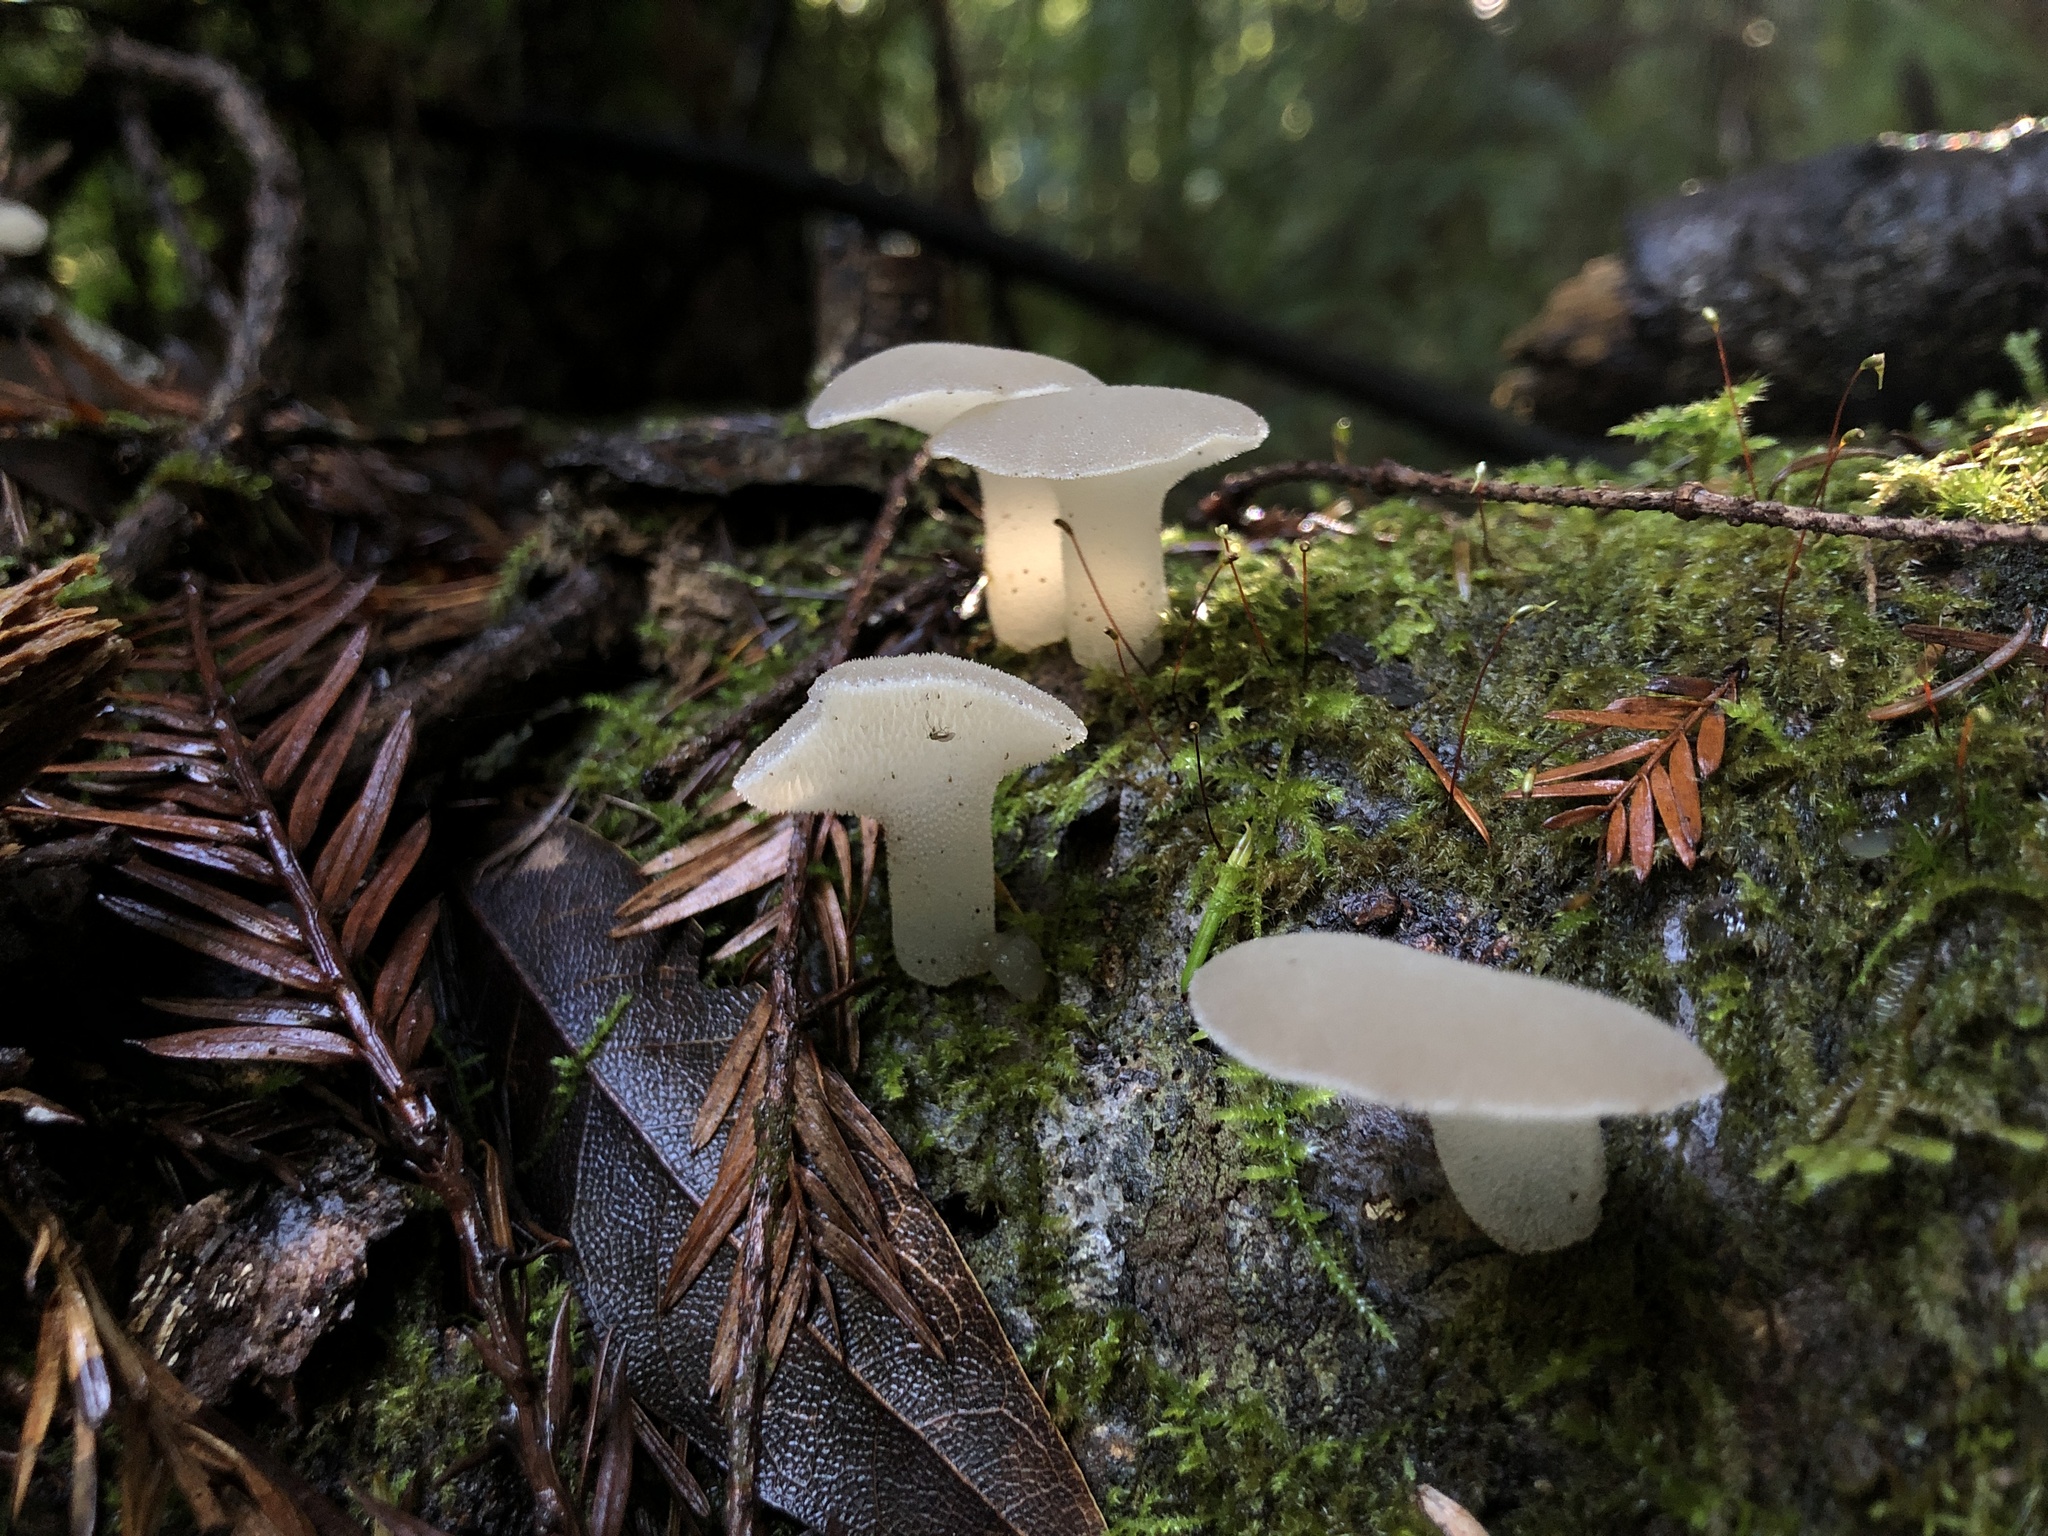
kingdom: Fungi
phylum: Basidiomycota
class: Agaricomycetes
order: Auriculariales
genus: Pseudohydnum
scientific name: Pseudohydnum gelatinosum
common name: Jelly tongue
